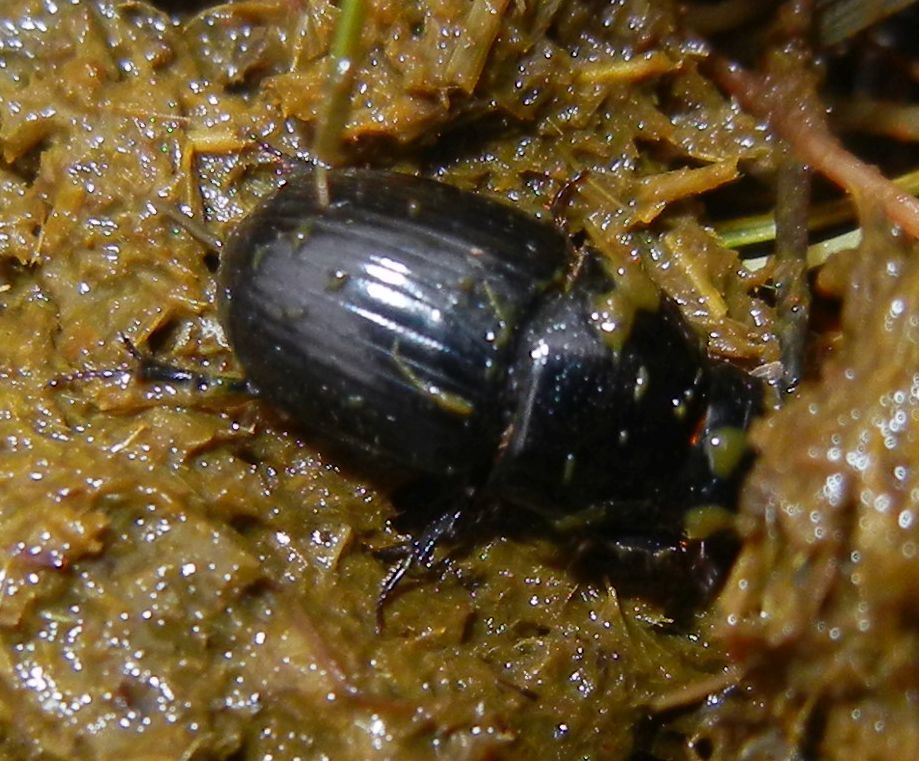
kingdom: Animalia
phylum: Arthropoda
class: Insecta
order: Coleoptera
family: Scarabaeidae
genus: Teuchestes
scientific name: Teuchestes fossor
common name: Digger small dung beetle
